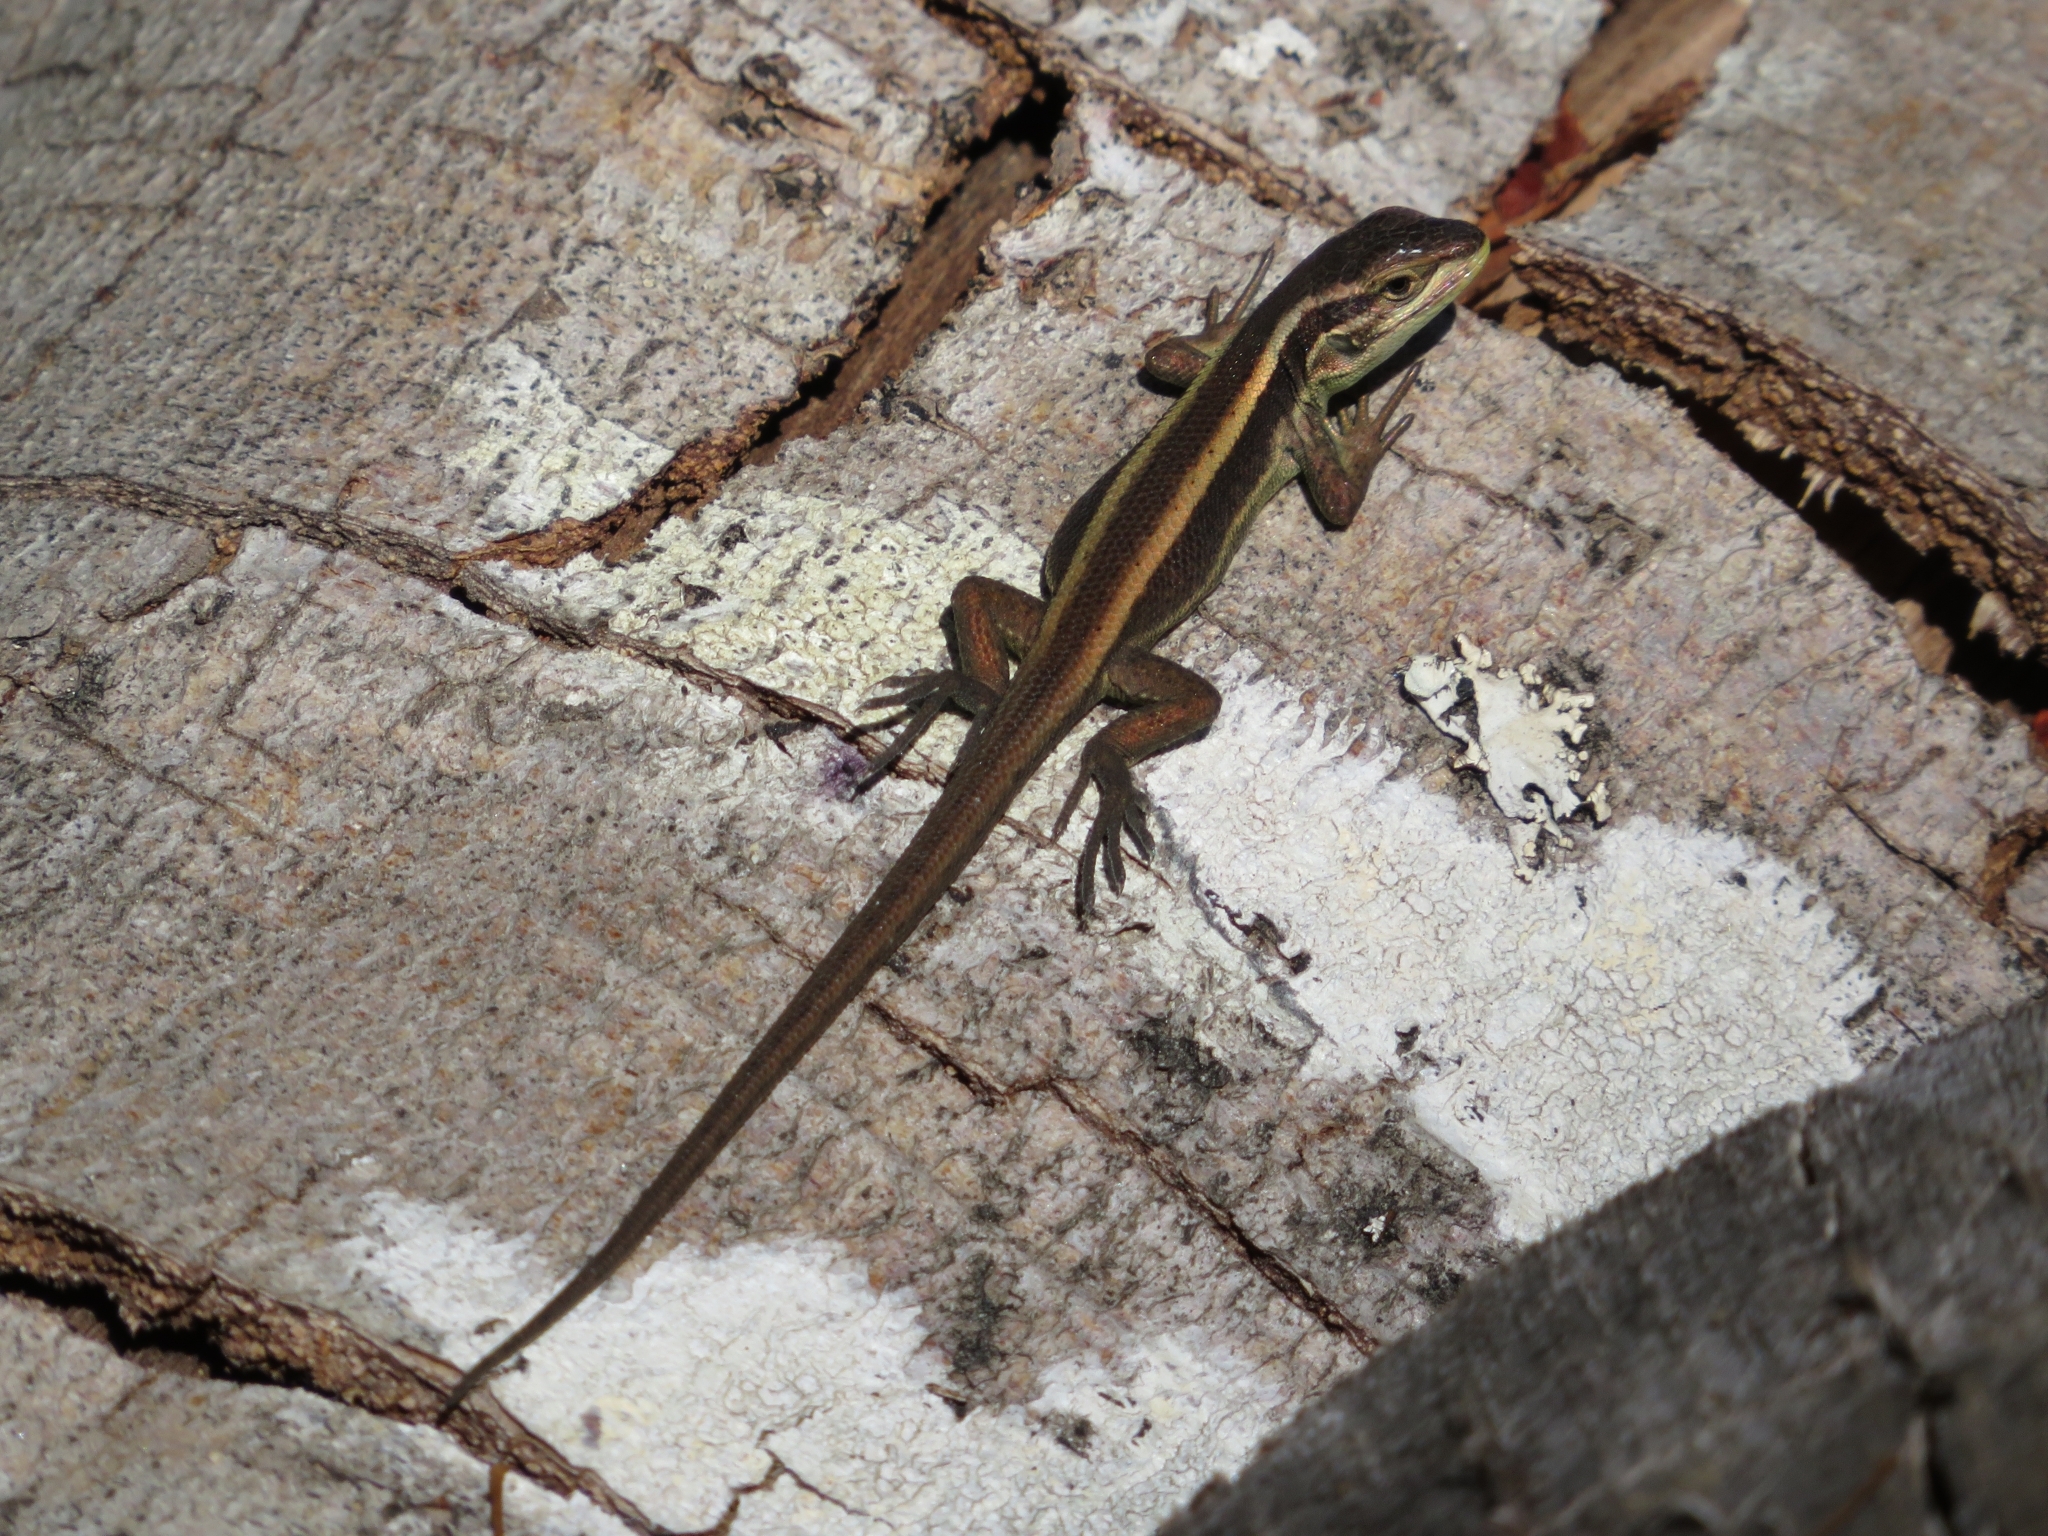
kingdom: Animalia
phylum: Chordata
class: Squamata
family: Liolaemidae
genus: Liolaemus
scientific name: Liolaemus cyanogaster
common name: Cyan tree iguana
